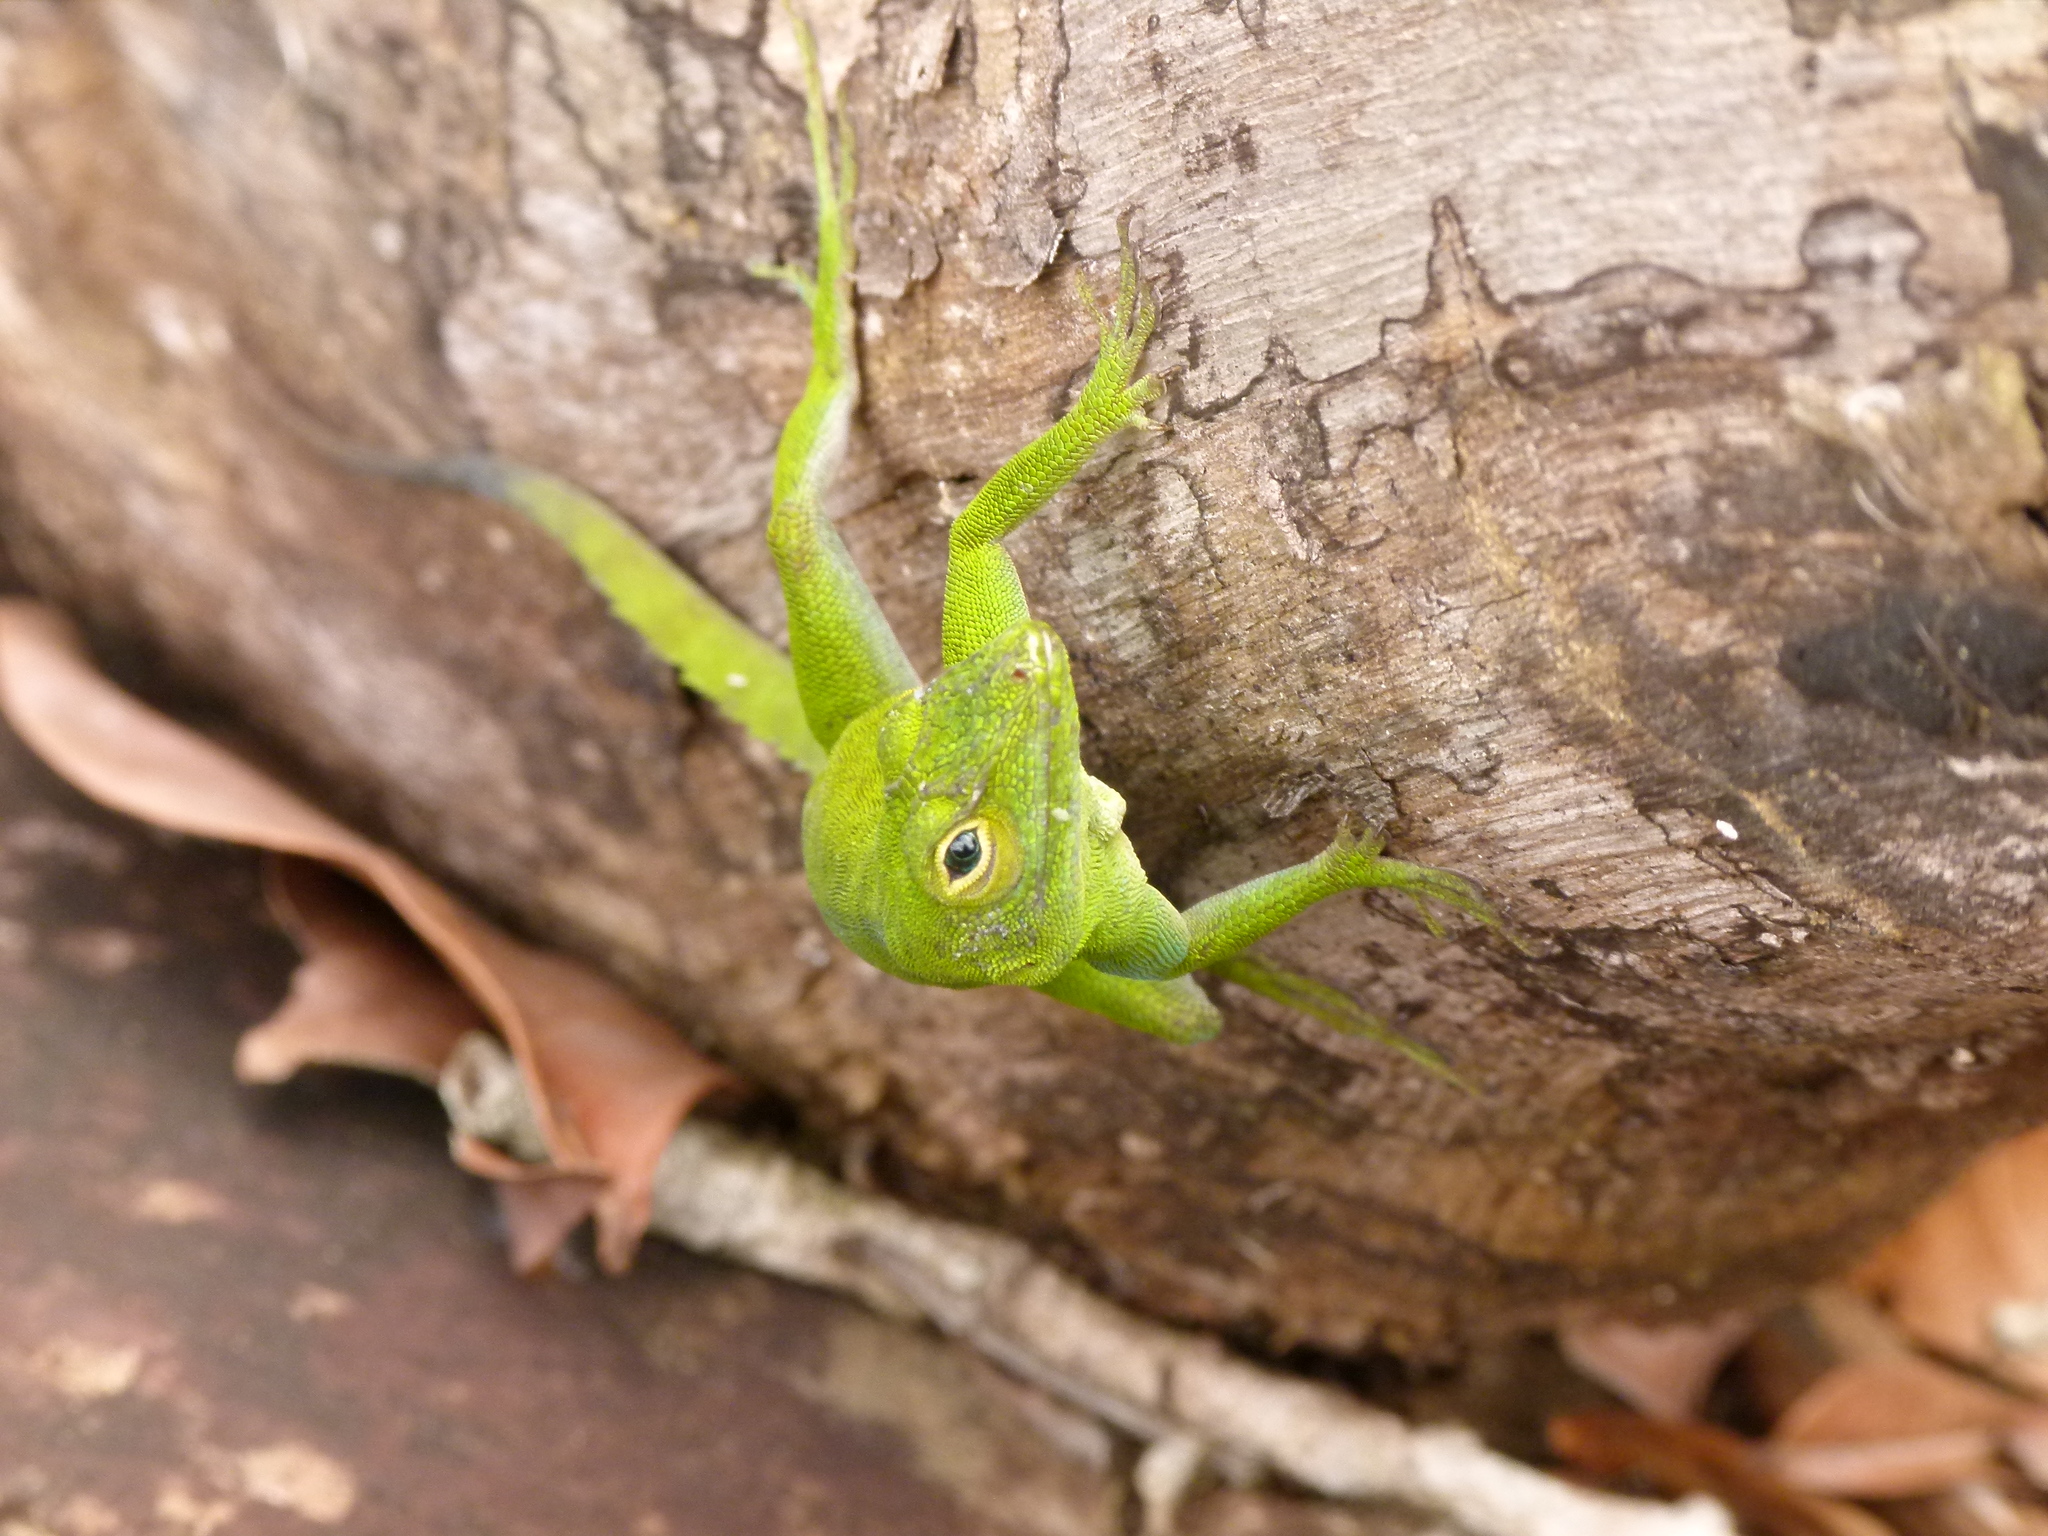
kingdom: Animalia
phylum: Chordata
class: Squamata
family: Dactyloidae
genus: Anolis
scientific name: Anolis evermanni
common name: Emerald anole
